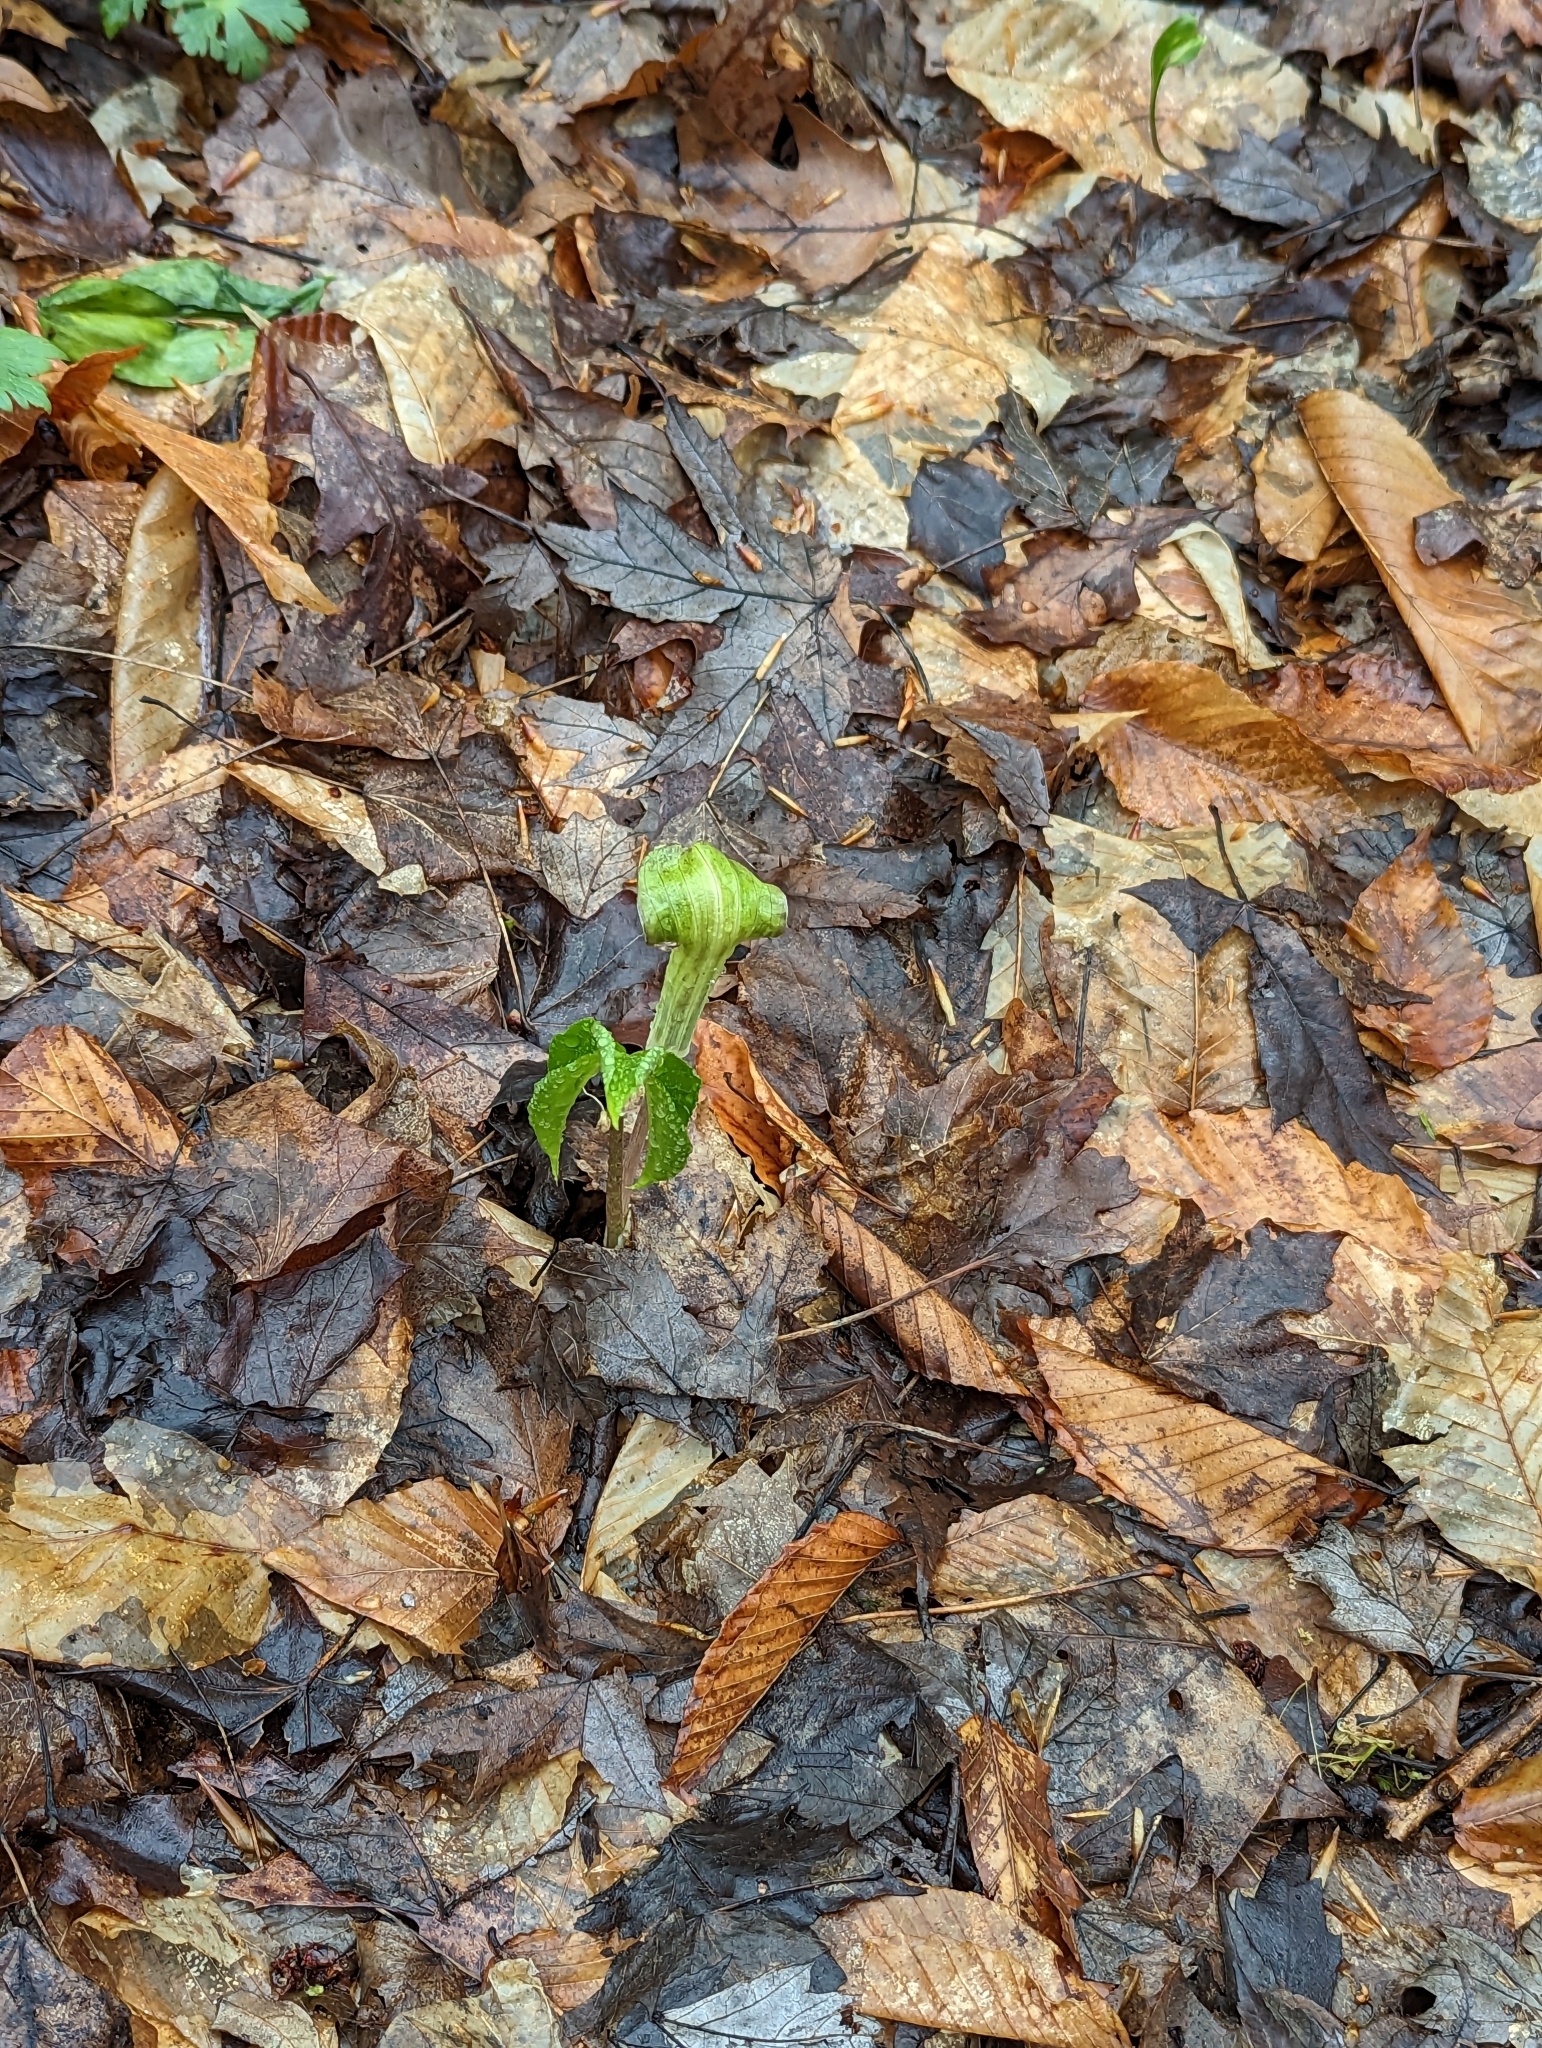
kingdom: Plantae
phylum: Tracheophyta
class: Liliopsida
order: Alismatales
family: Araceae
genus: Arisaema
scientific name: Arisaema triphyllum
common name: Jack-in-the-pulpit
